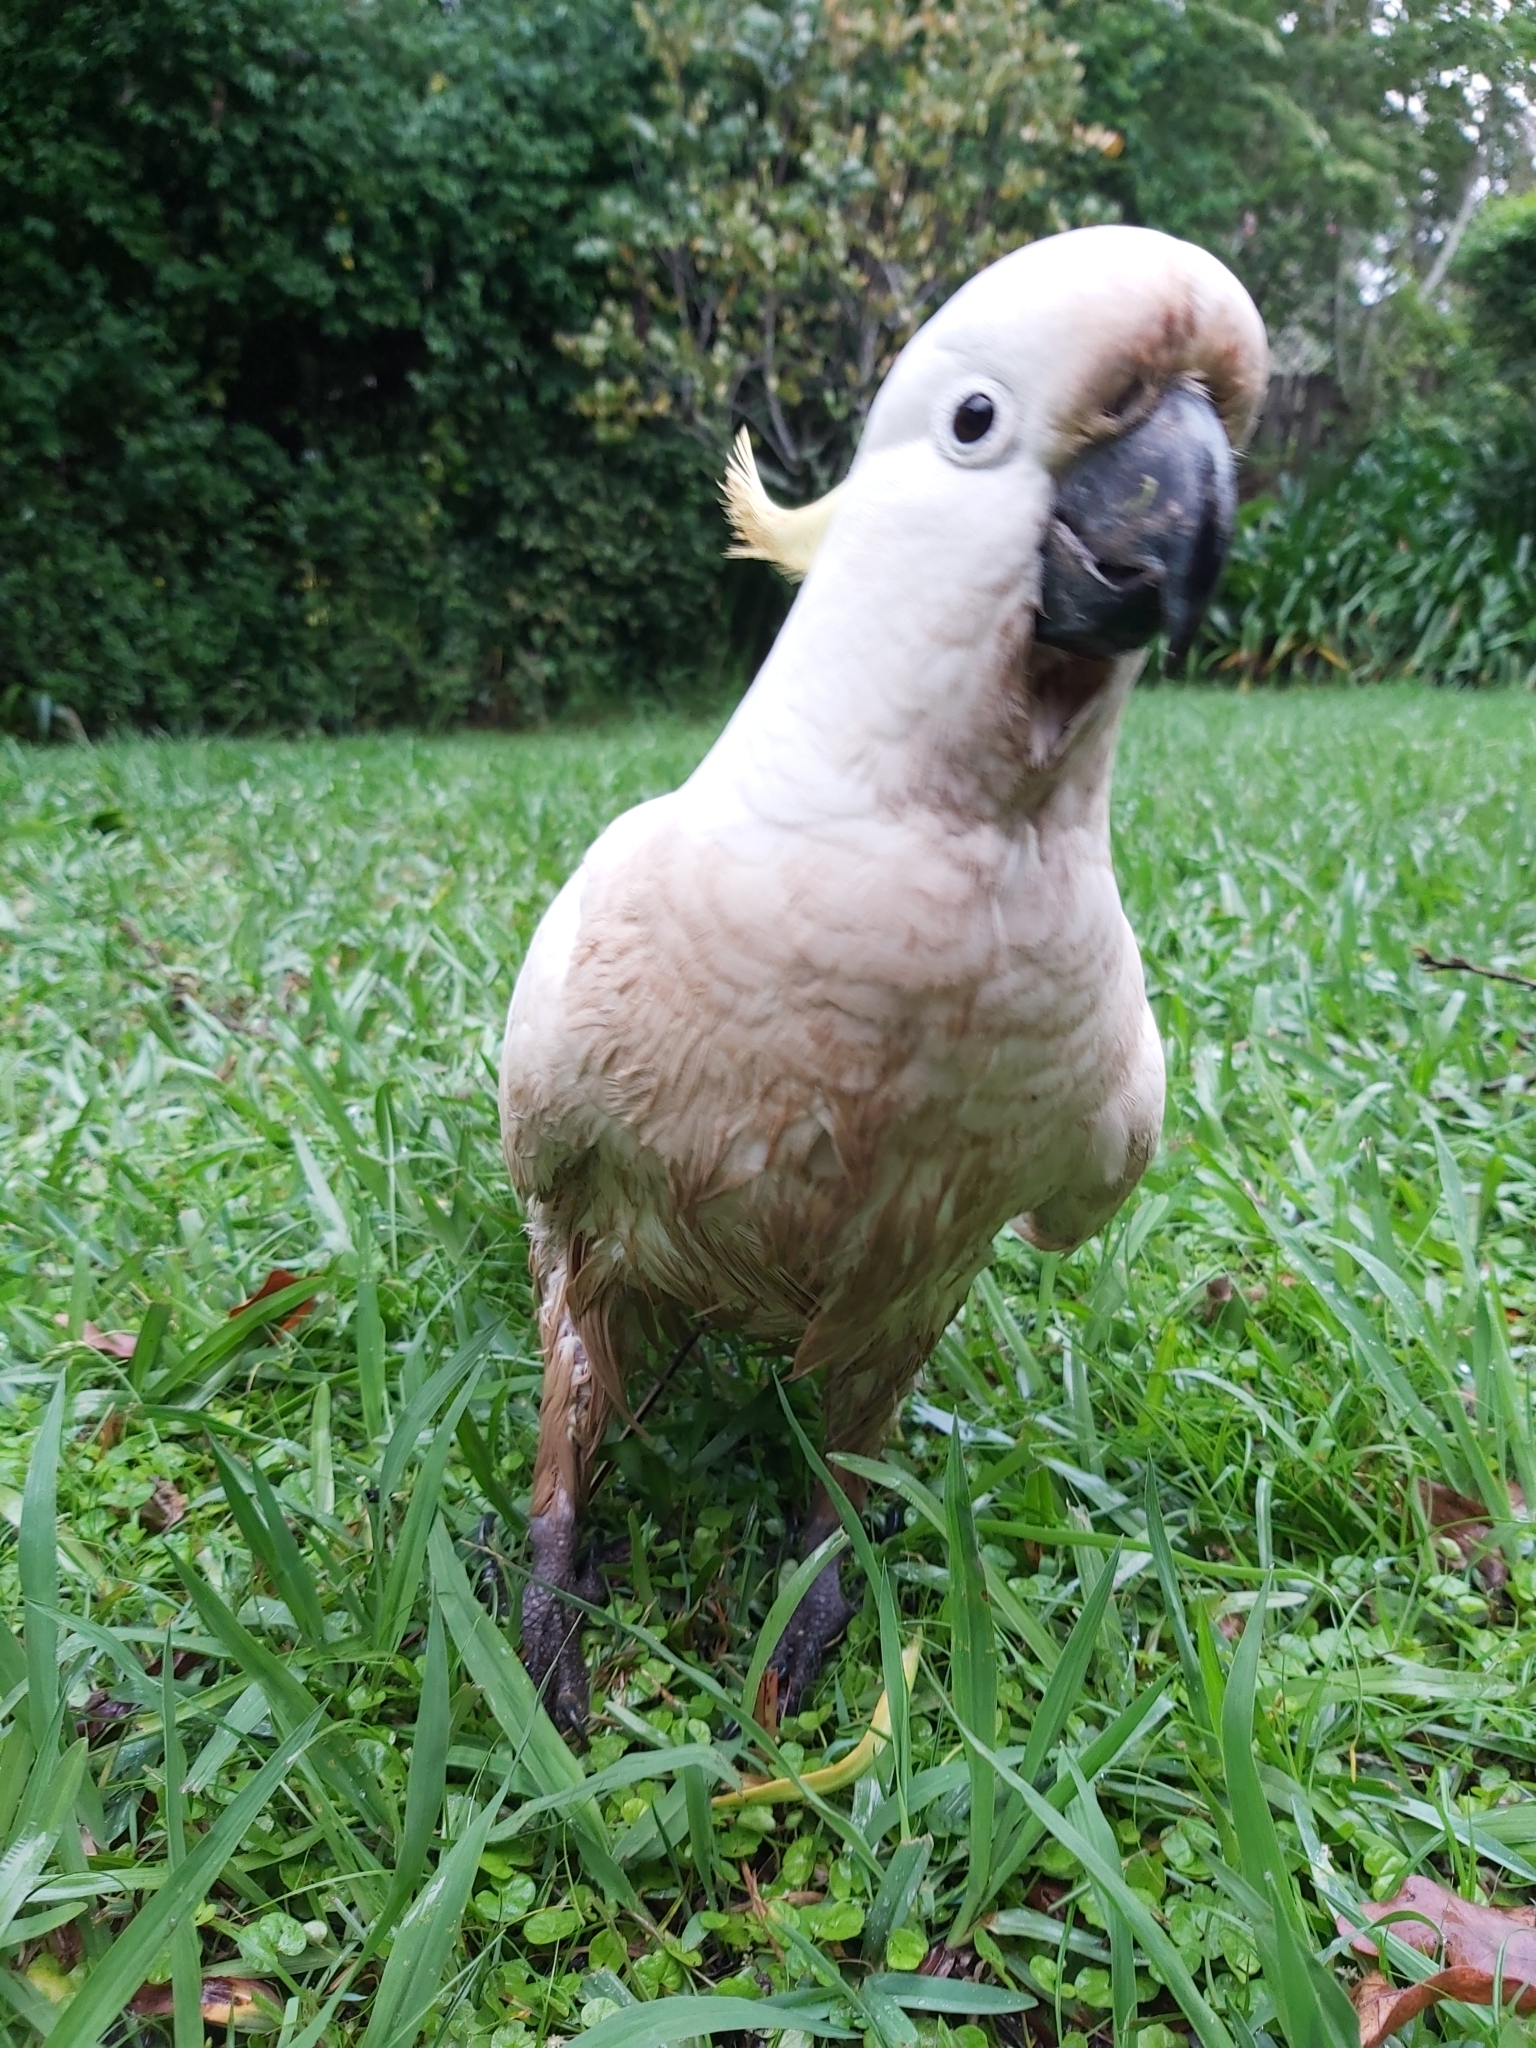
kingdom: Animalia
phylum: Chordata
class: Aves
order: Psittaciformes
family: Psittacidae
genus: Cacatua
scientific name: Cacatua galerita
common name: Sulphur-crested cockatoo
